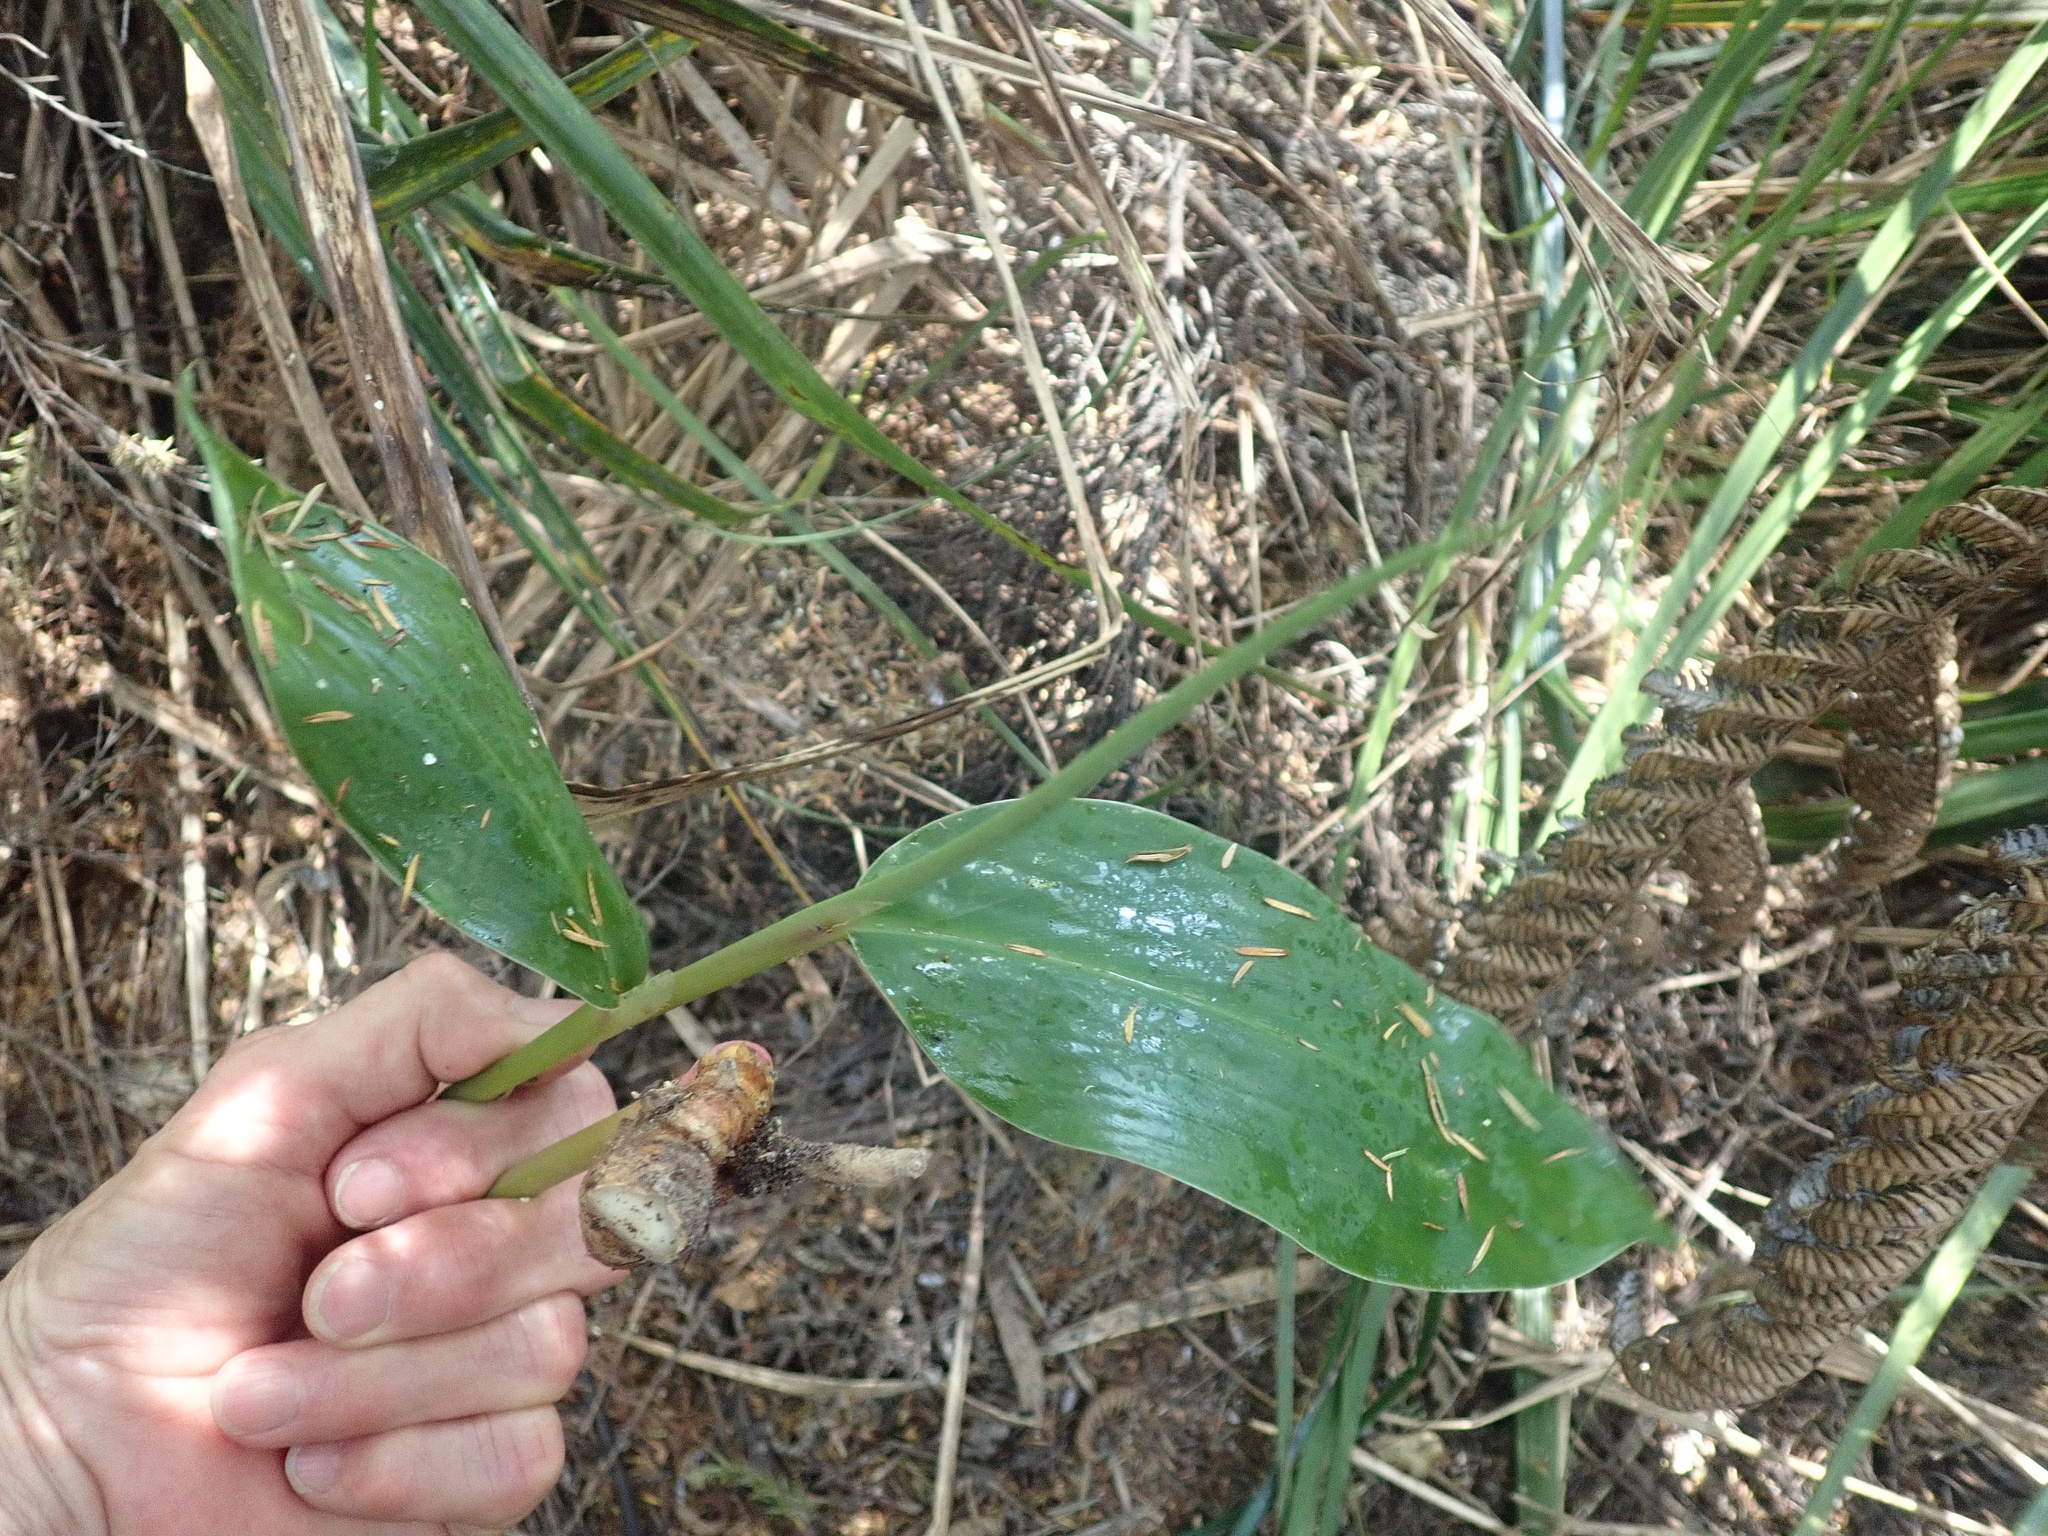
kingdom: Plantae
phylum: Tracheophyta
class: Liliopsida
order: Zingiberales
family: Zingiberaceae
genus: Hedychium
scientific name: Hedychium gardnerianum
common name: Himalayan ginger
